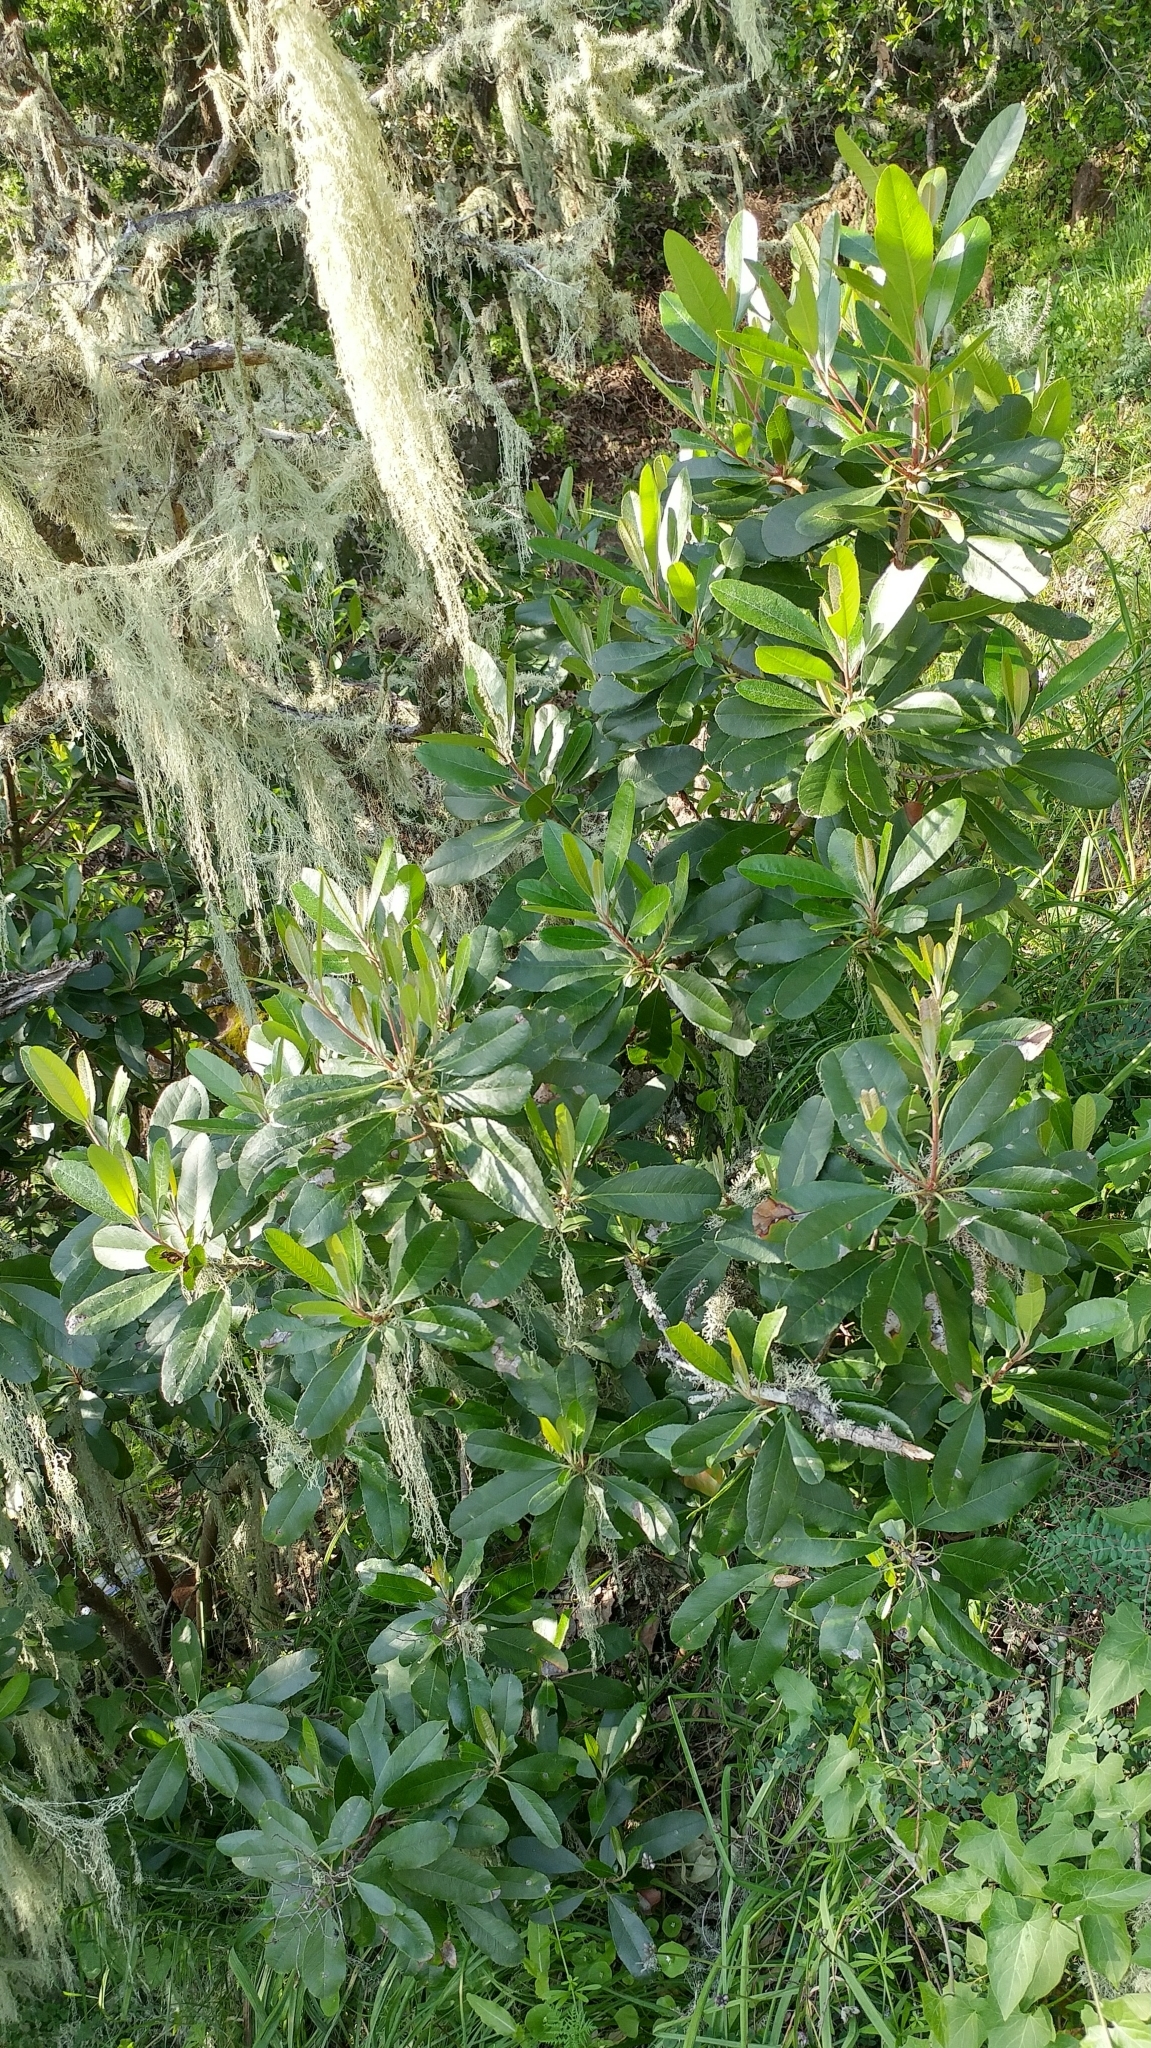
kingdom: Plantae
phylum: Tracheophyta
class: Magnoliopsida
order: Rosales
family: Rosaceae
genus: Heteromeles
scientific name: Heteromeles arbutifolia
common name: California-holly
